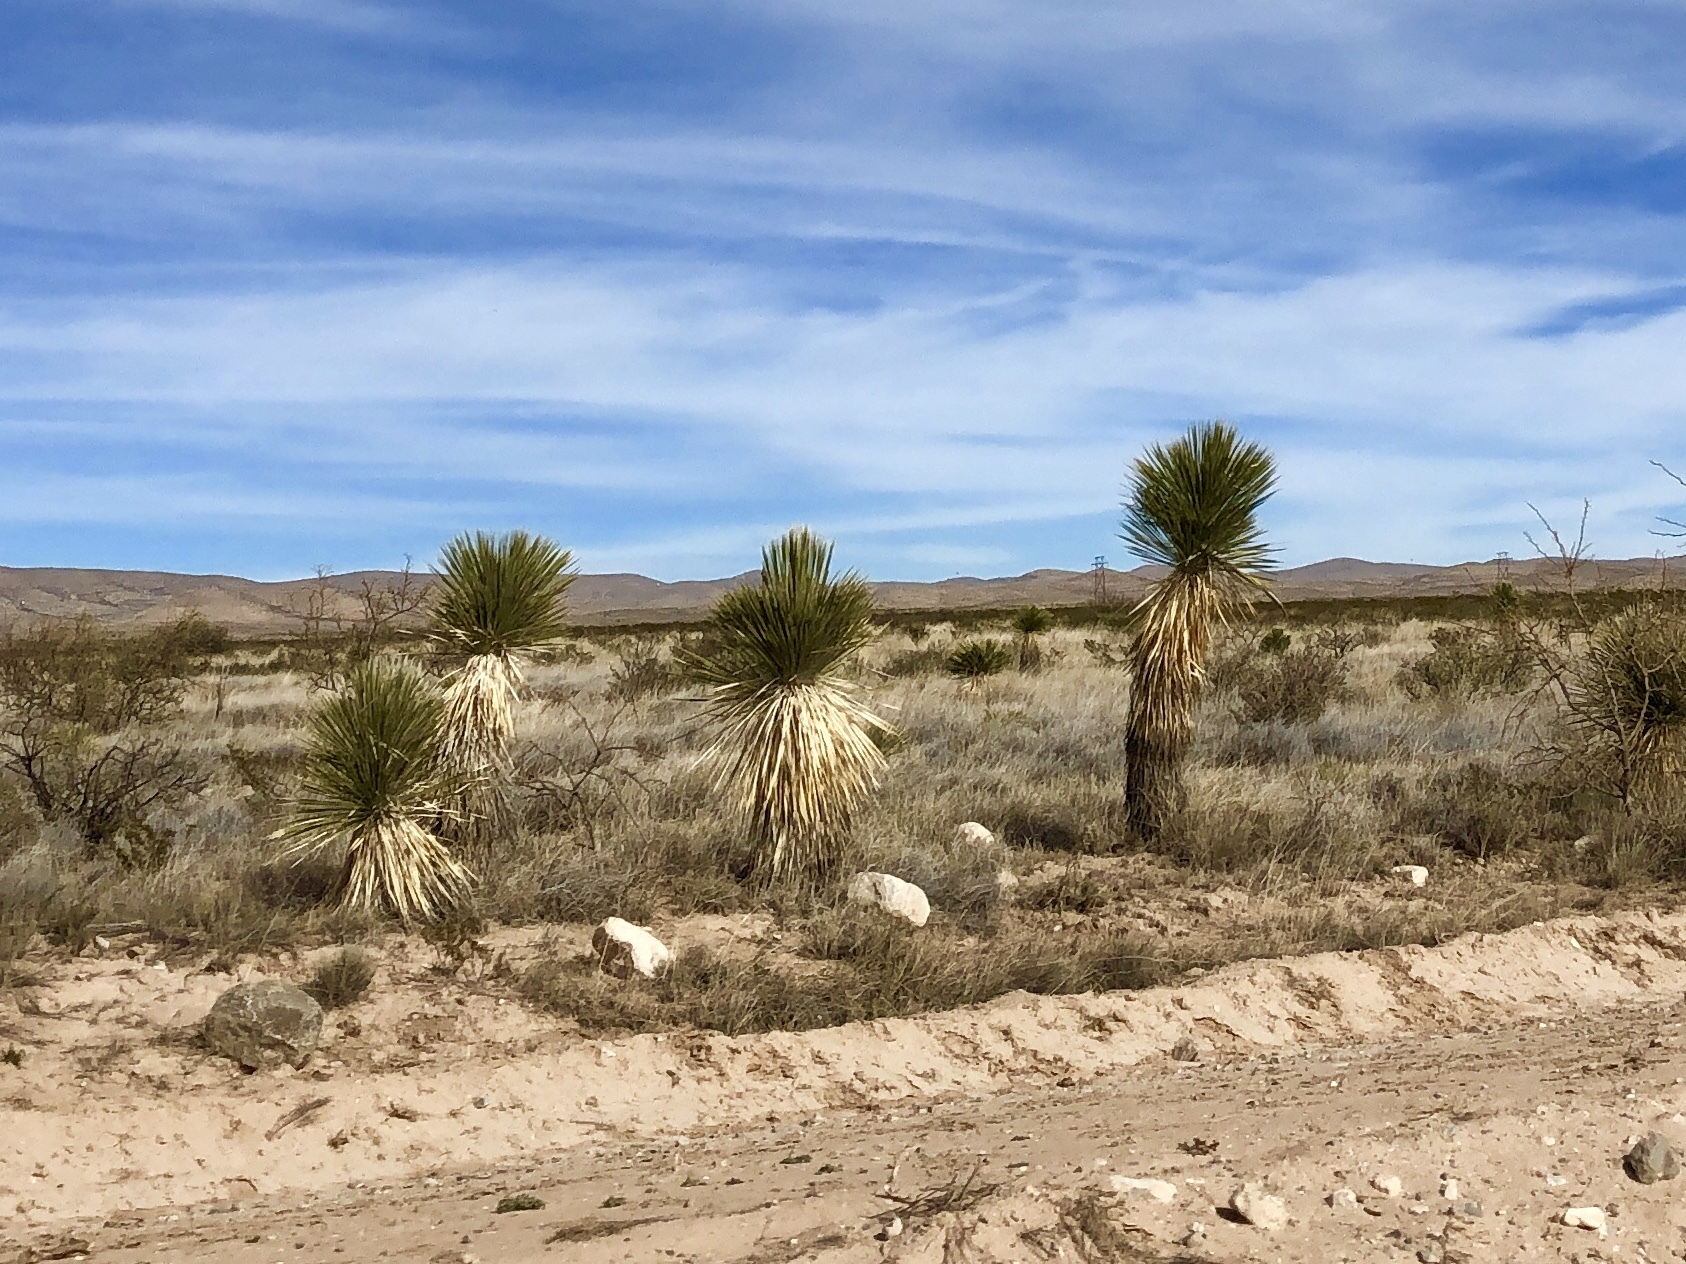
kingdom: Plantae
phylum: Tracheophyta
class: Liliopsida
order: Asparagales
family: Asparagaceae
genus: Yucca
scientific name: Yucca elata
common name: Palmella
